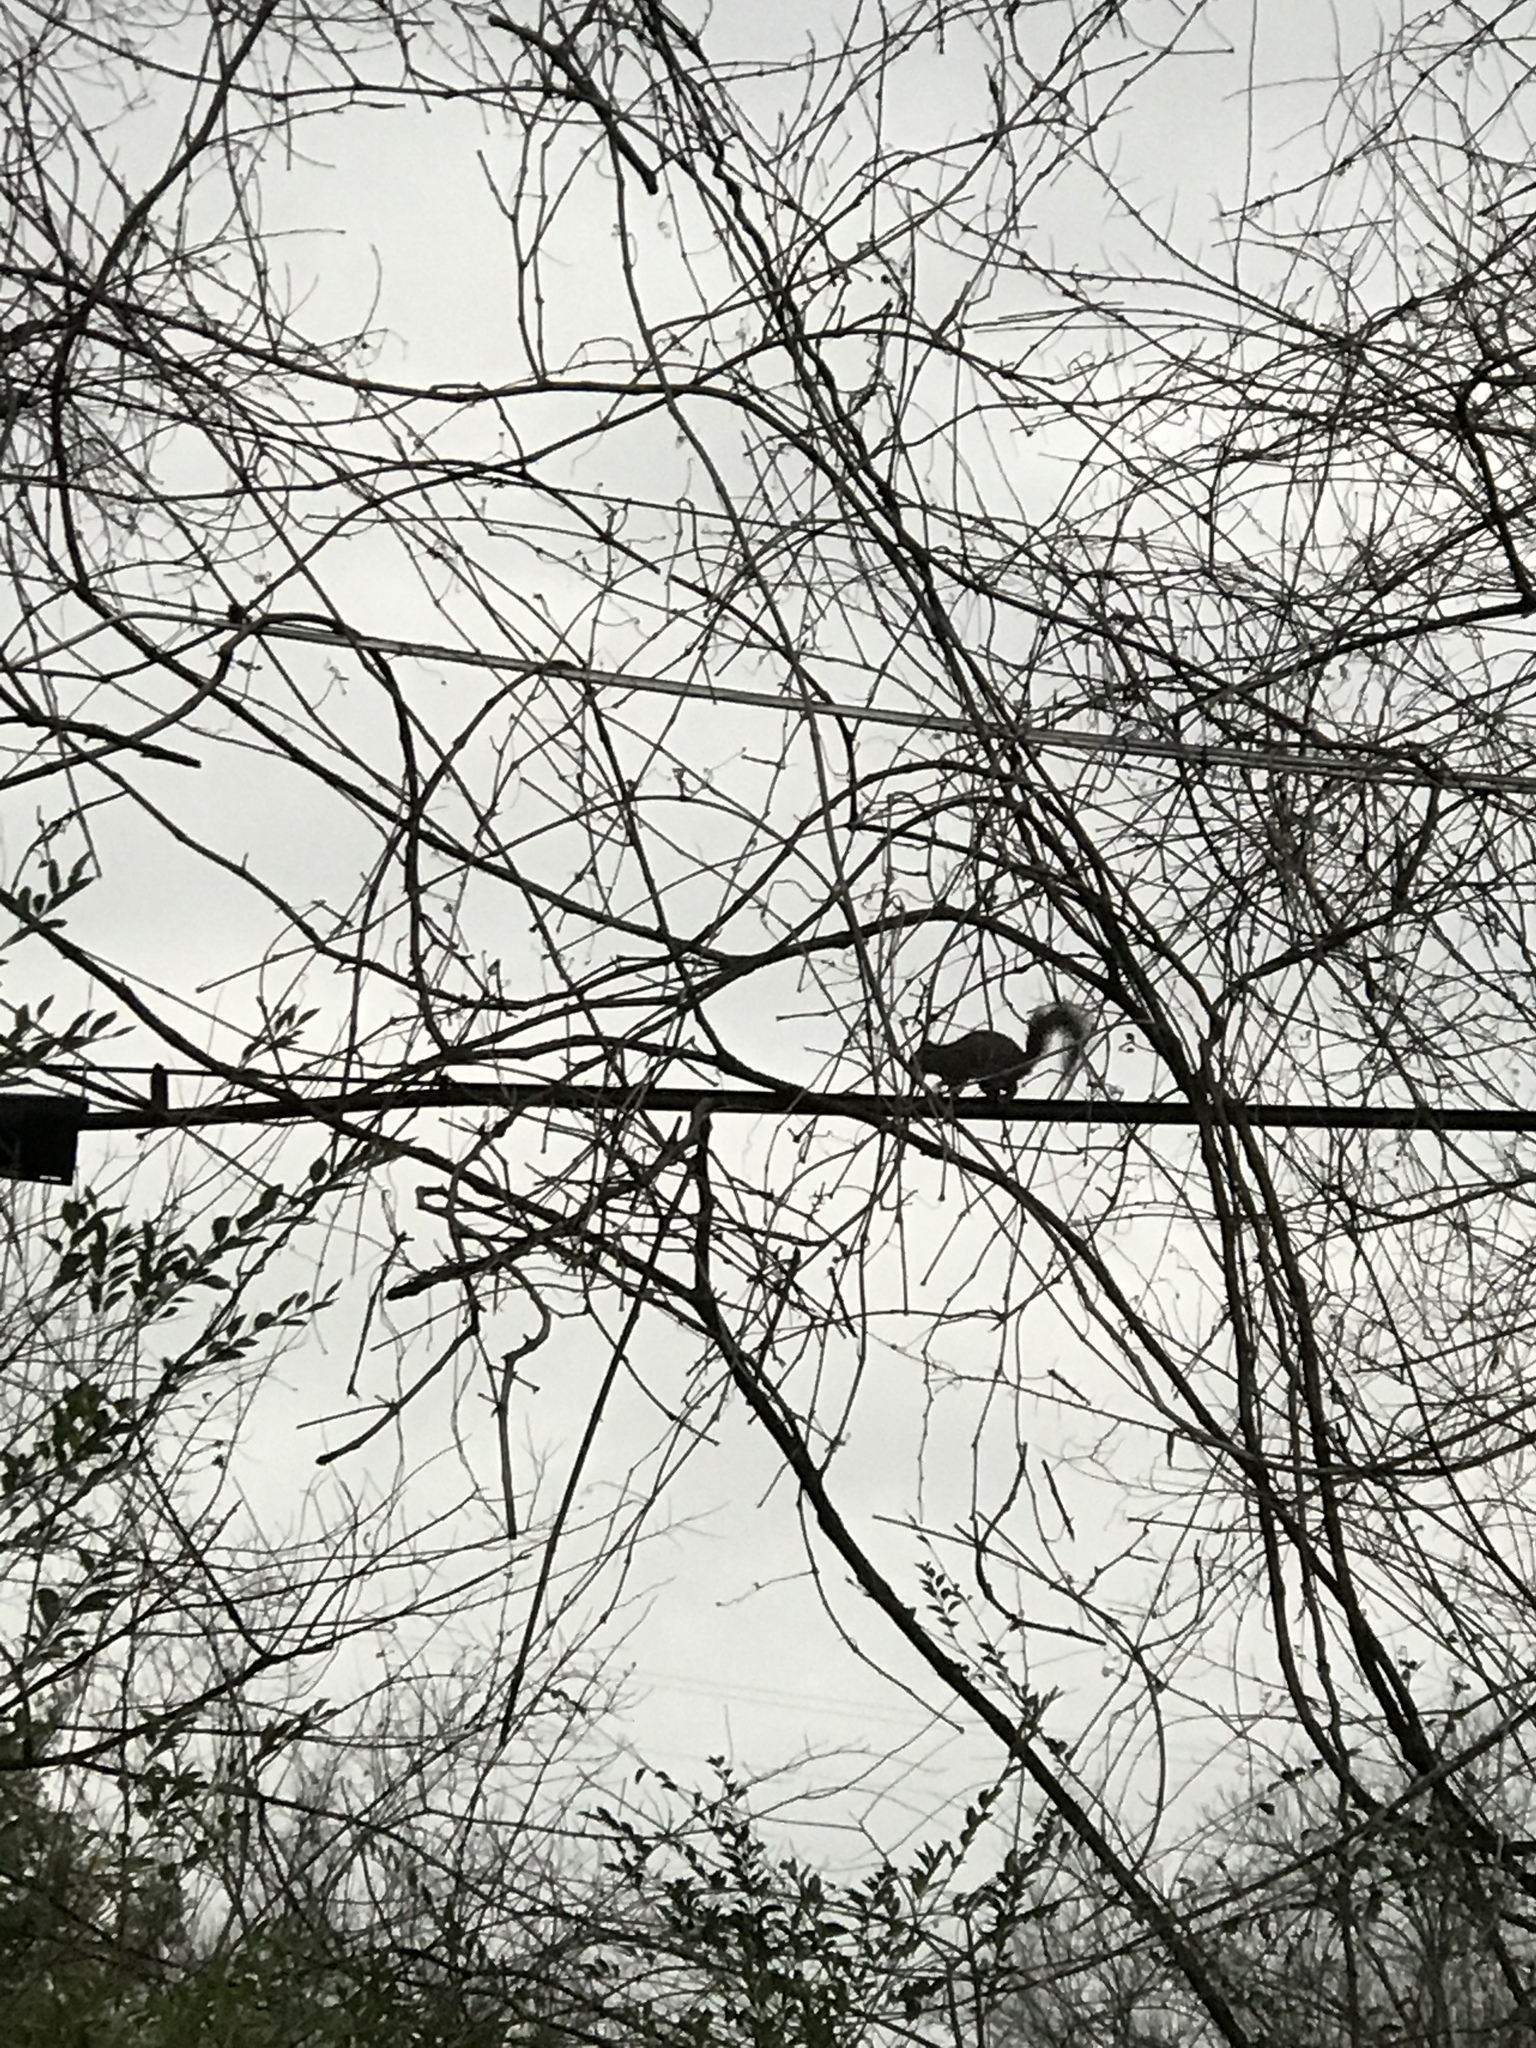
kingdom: Animalia
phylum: Chordata
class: Mammalia
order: Rodentia
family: Sciuridae
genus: Sciurus
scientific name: Sciurus carolinensis
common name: Eastern gray squirrel
